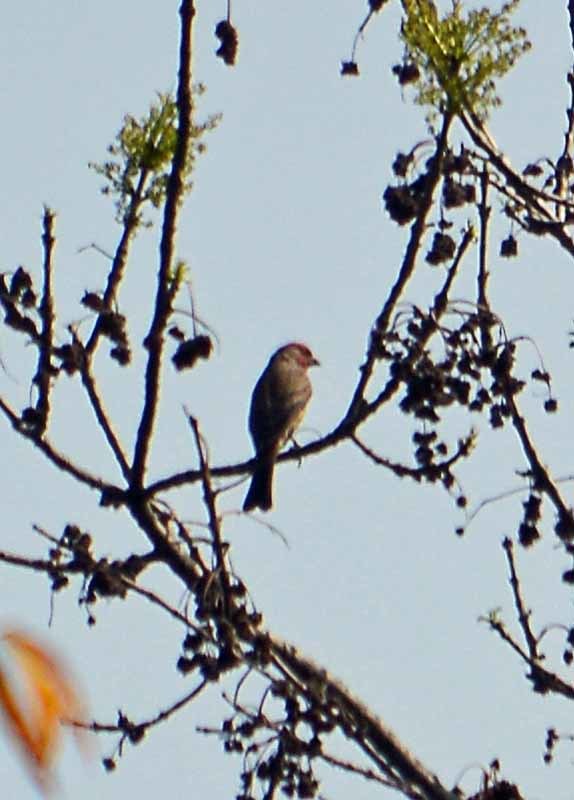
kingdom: Animalia
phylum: Chordata
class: Aves
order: Passeriformes
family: Fringillidae
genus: Haemorhous
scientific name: Haemorhous mexicanus
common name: House finch
